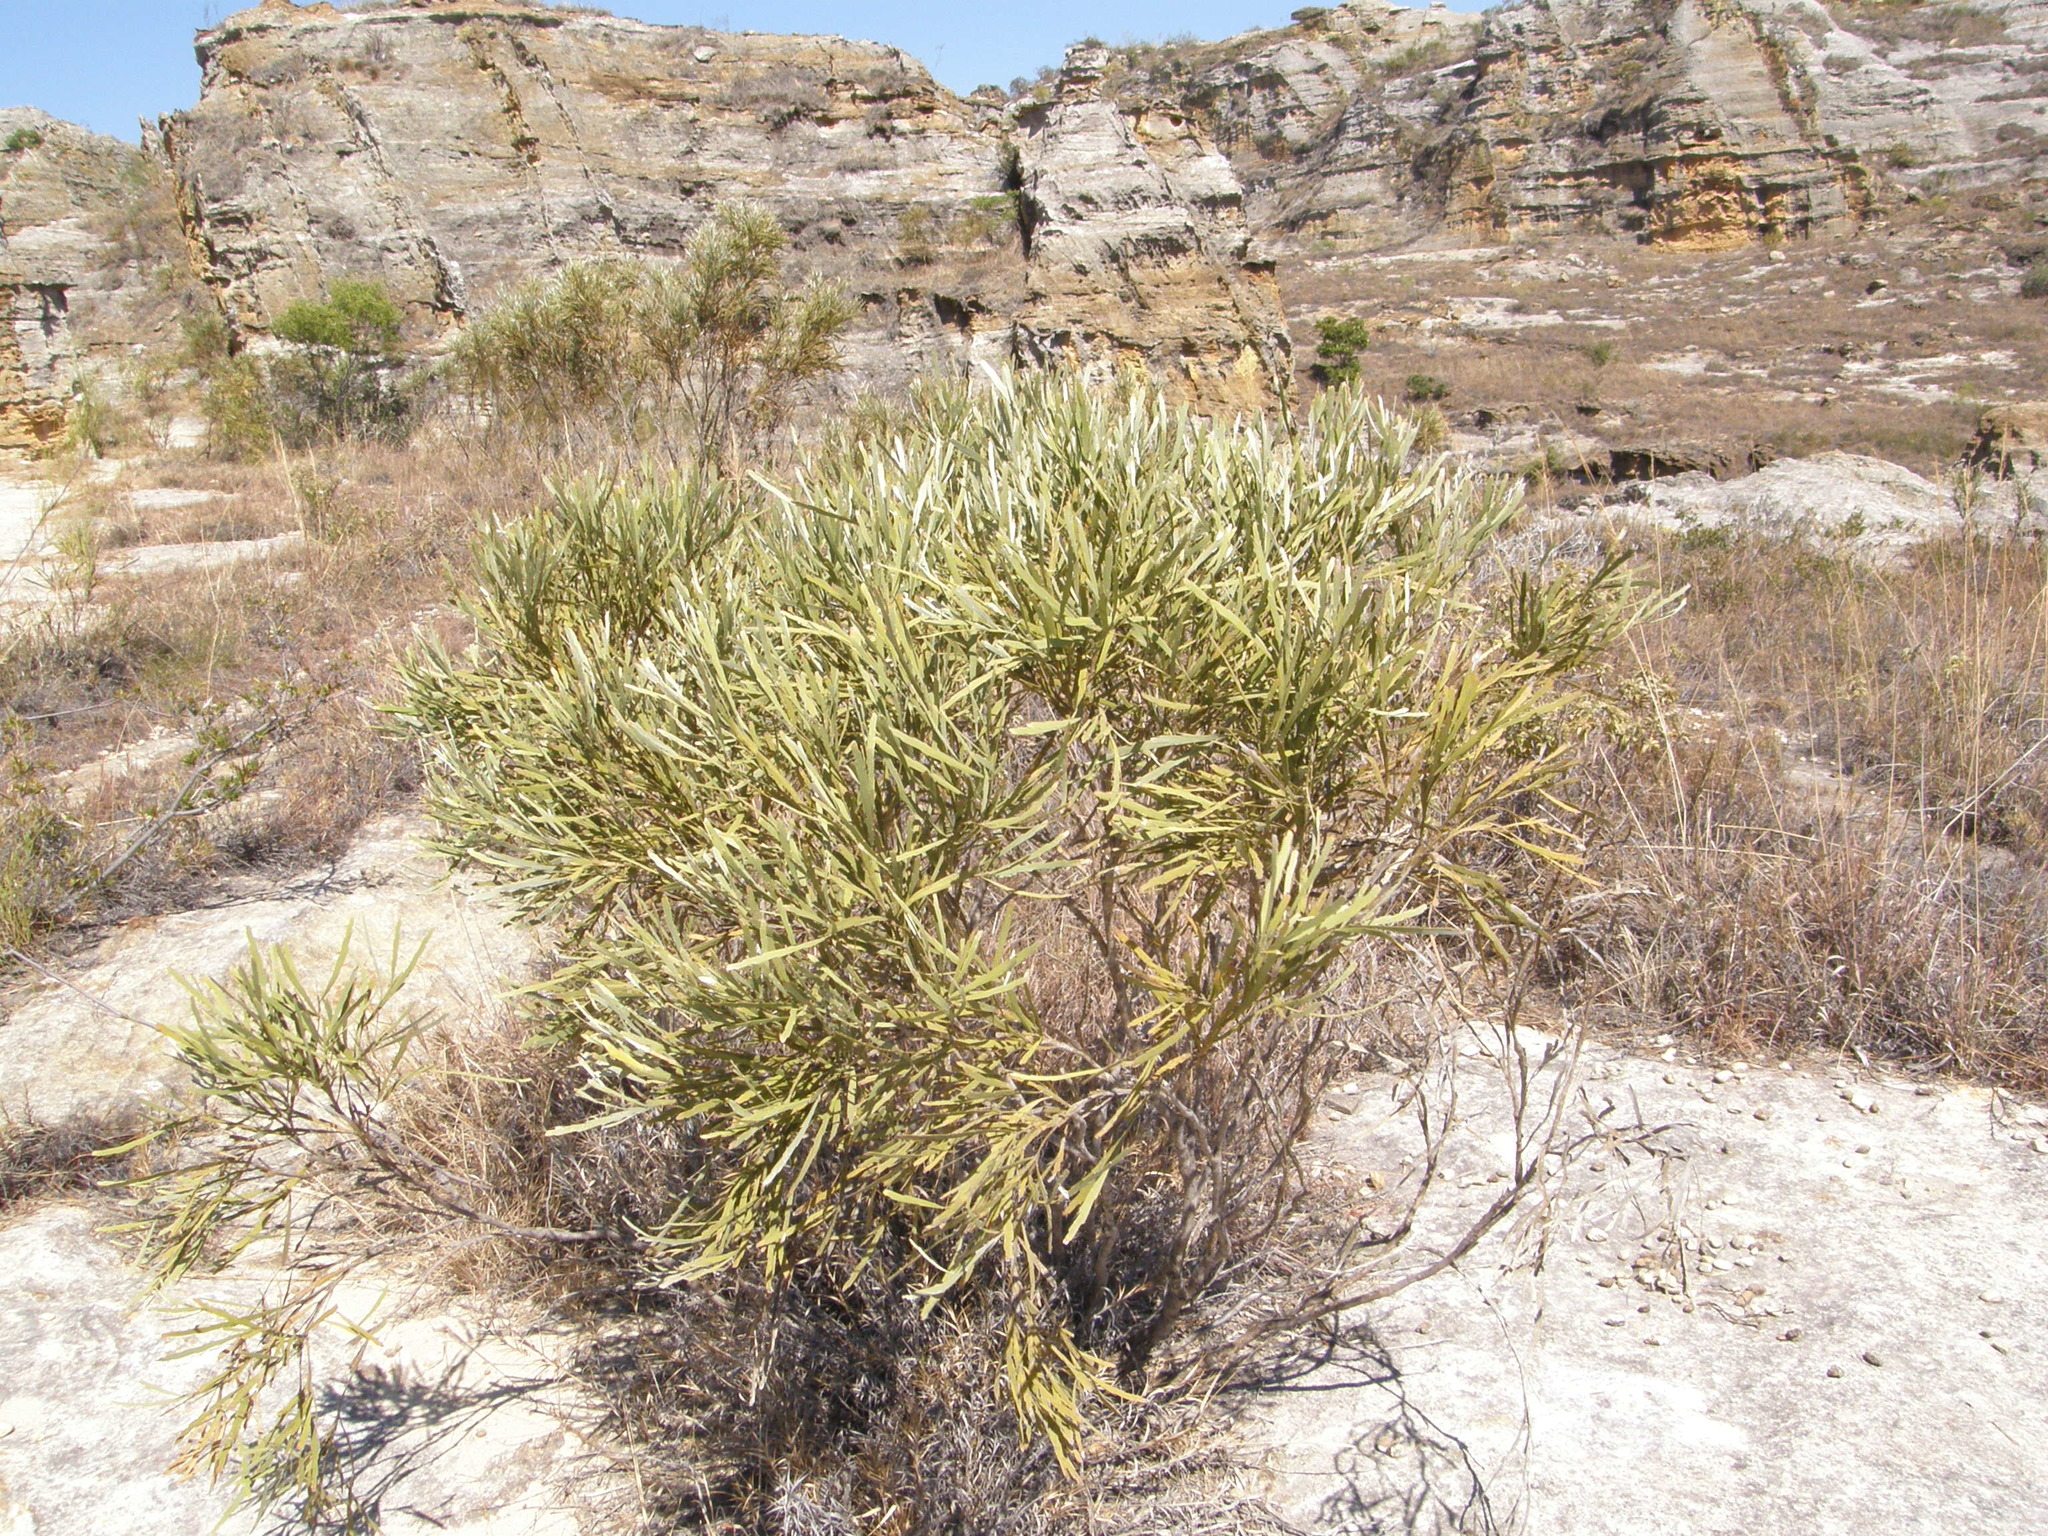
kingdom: Plantae
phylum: Tracheophyta
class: Magnoliopsida
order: Fabales
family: Fabaceae
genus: Tephrosia
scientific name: Tephrosia phylloxylon
